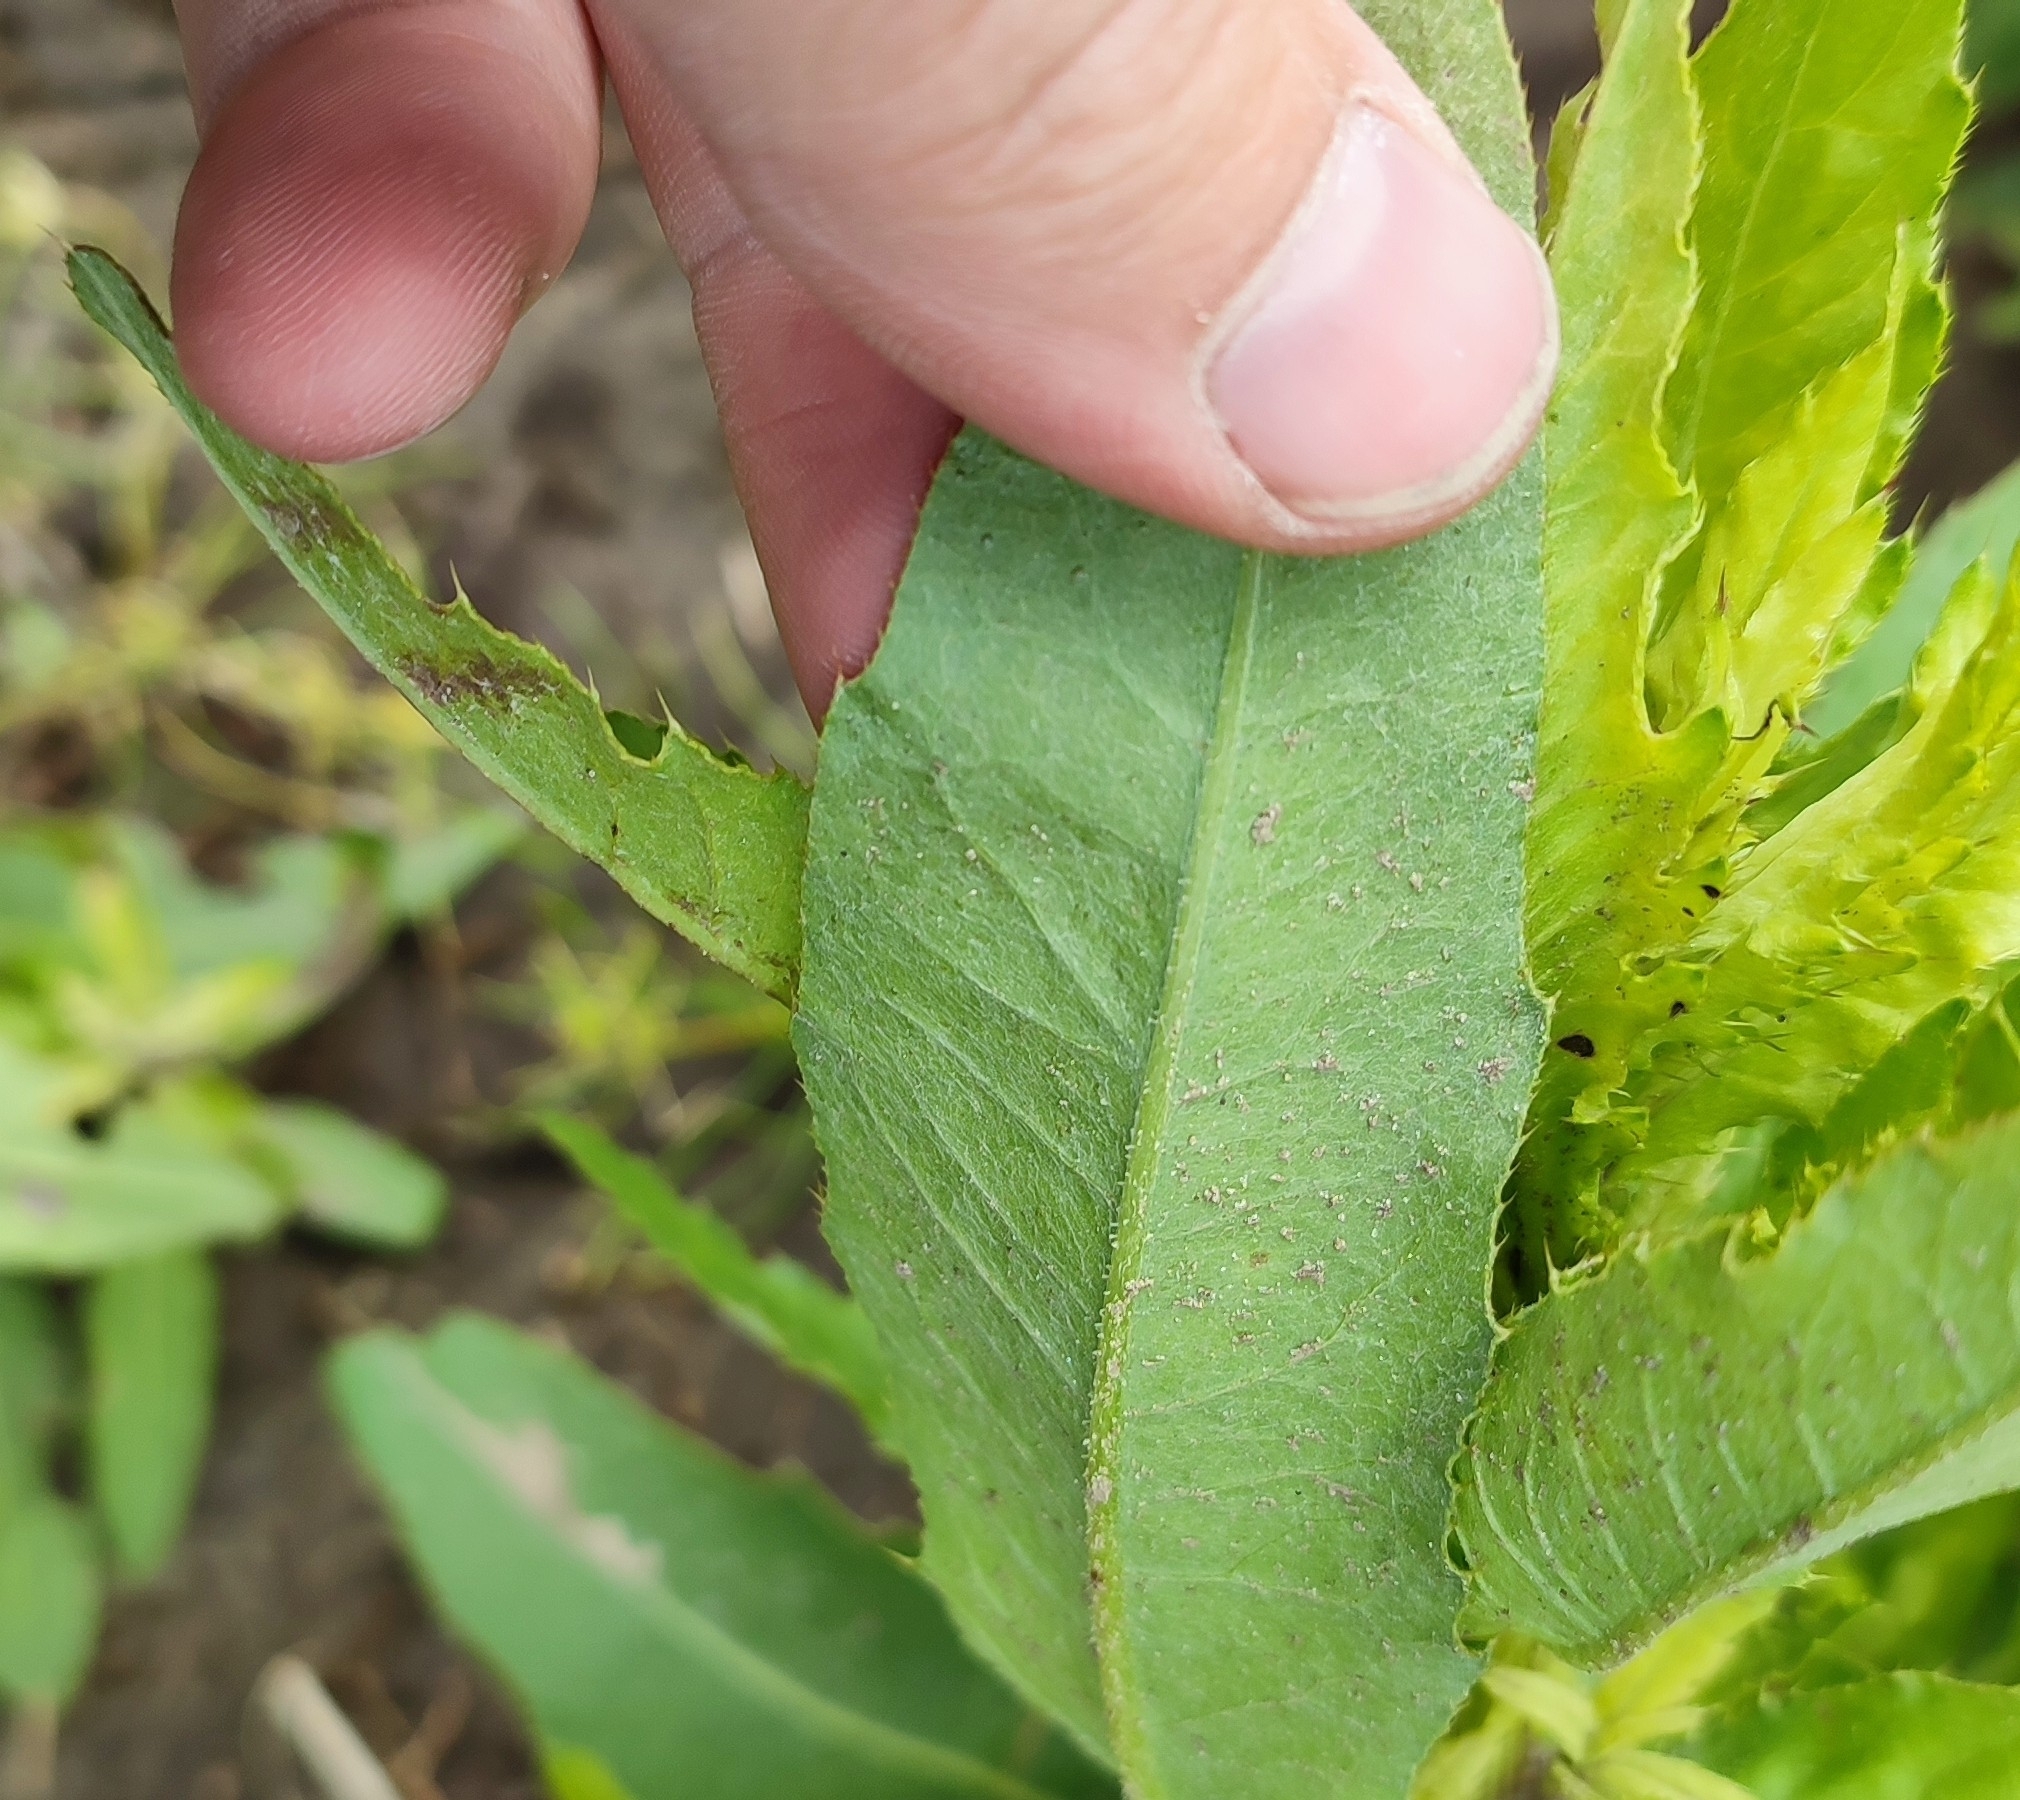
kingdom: Plantae
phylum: Tracheophyta
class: Magnoliopsida
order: Asterales
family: Asteraceae
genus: Cirsium
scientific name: Cirsium arvense
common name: Creeping thistle
